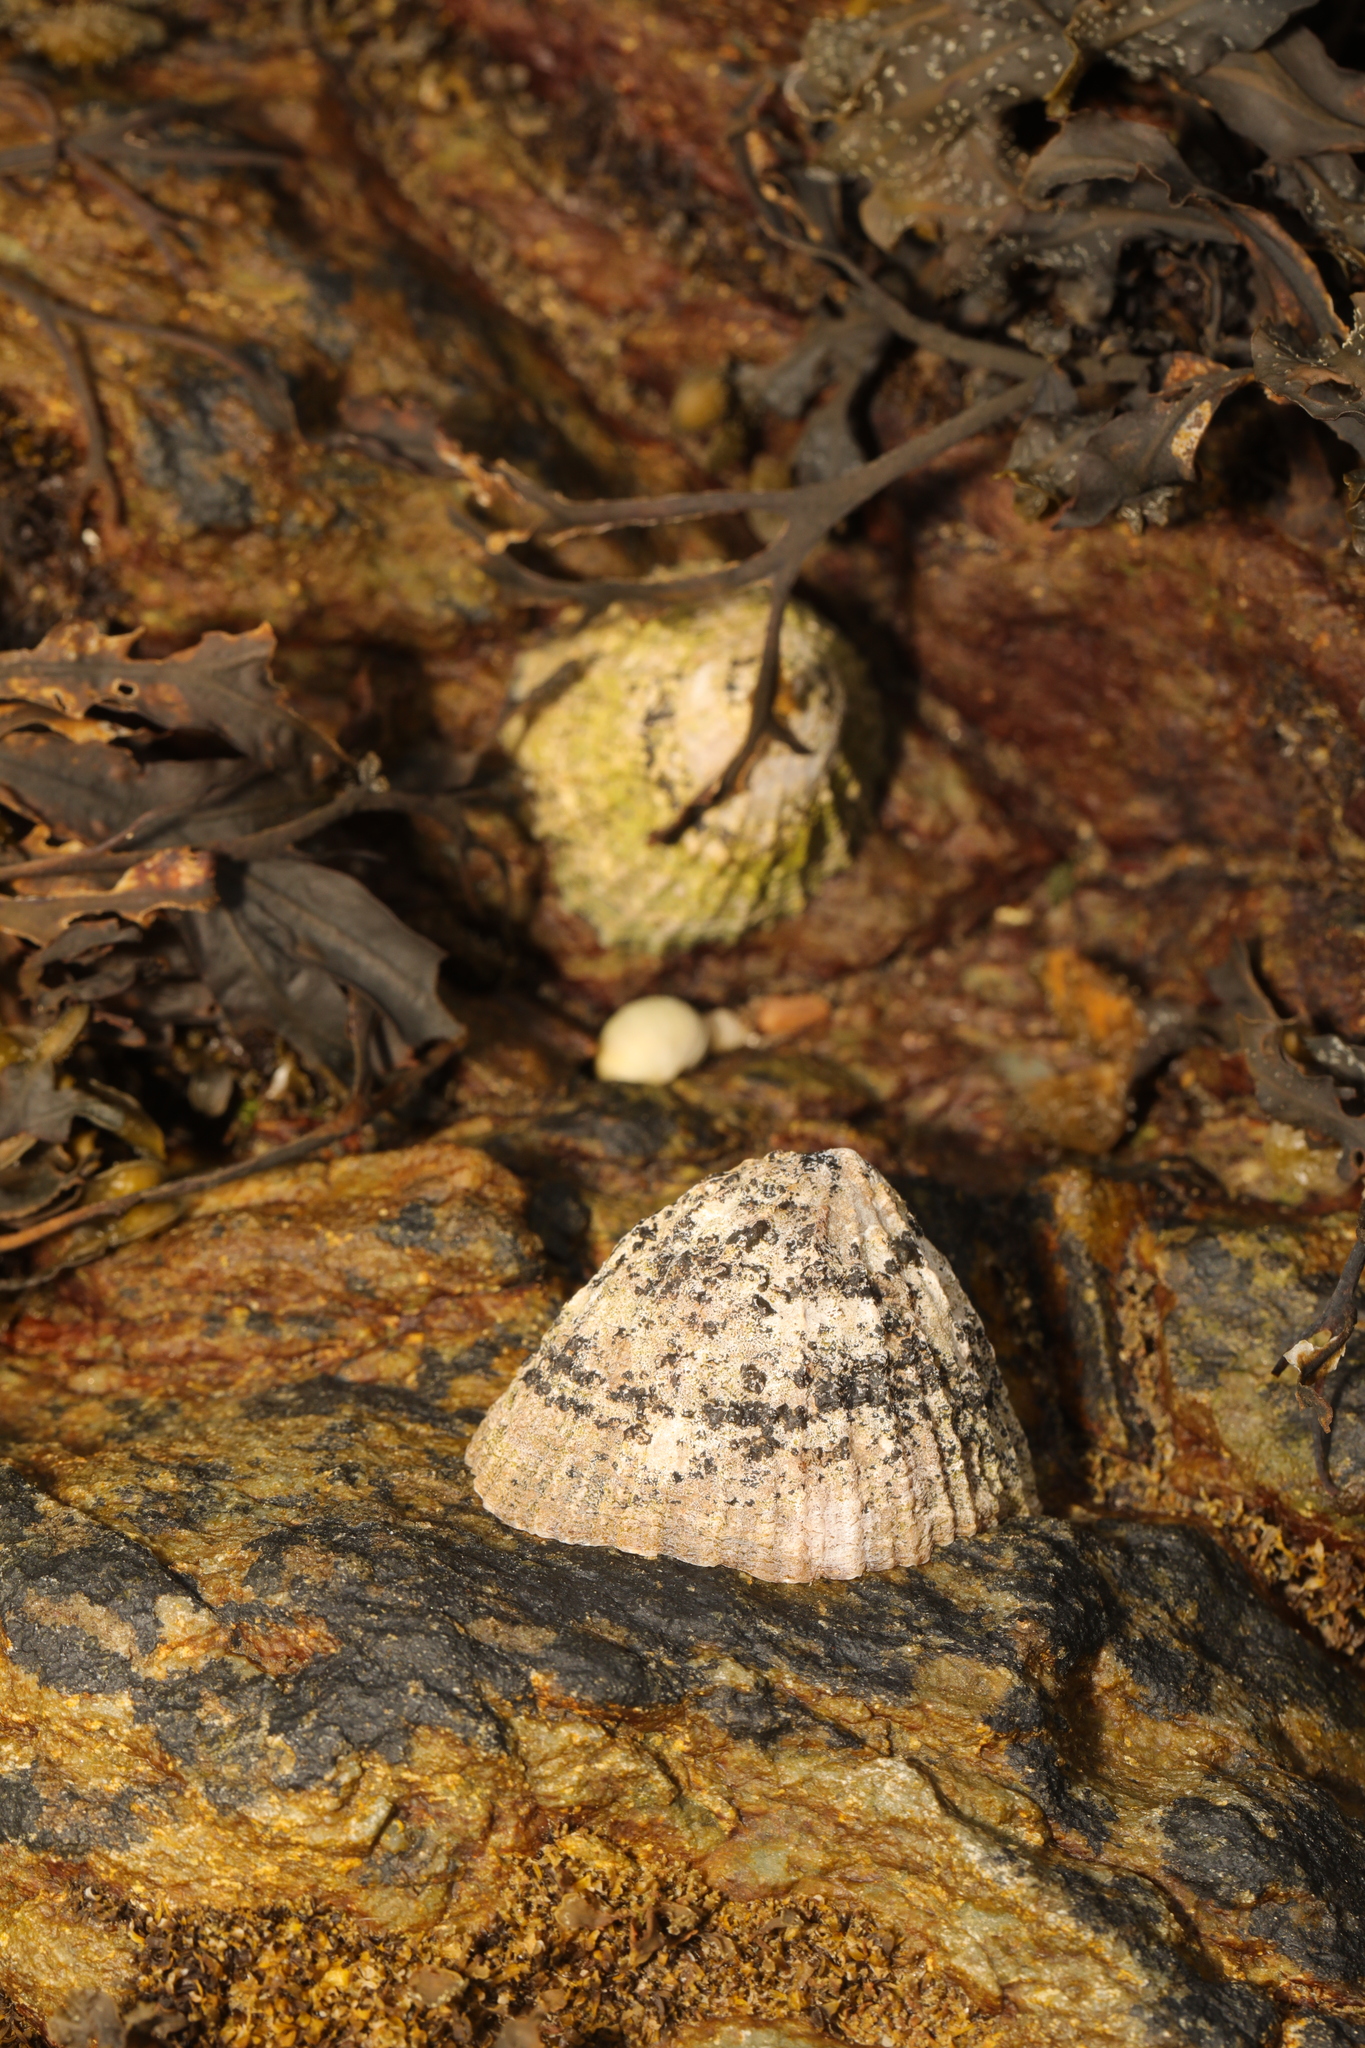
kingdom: Animalia
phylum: Mollusca
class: Gastropoda
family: Patellidae
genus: Patella
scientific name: Patella vulgata
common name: Common limpet
